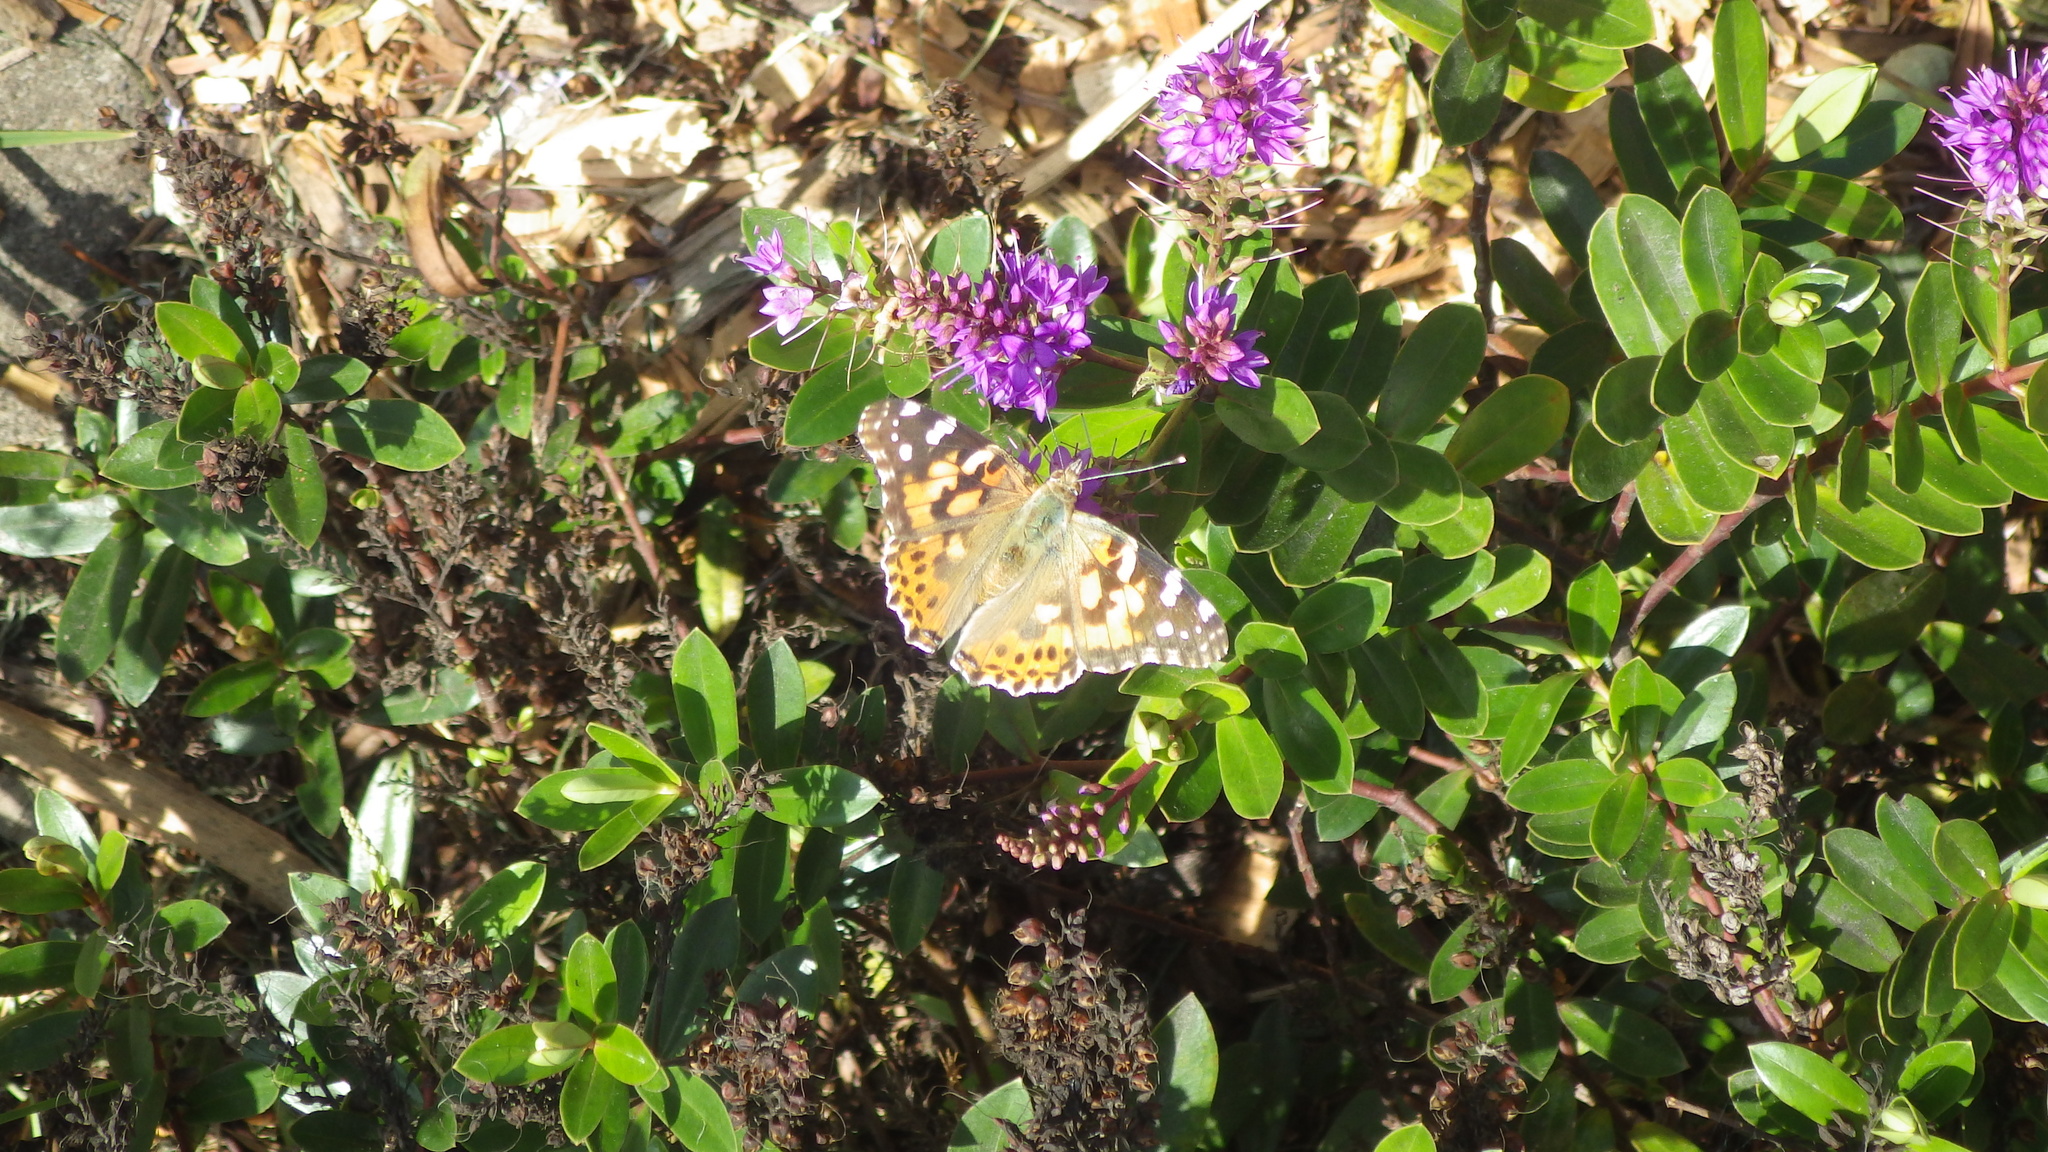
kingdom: Animalia
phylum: Arthropoda
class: Insecta
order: Lepidoptera
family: Nymphalidae
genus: Vanessa
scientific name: Vanessa cardui
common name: Painted lady
